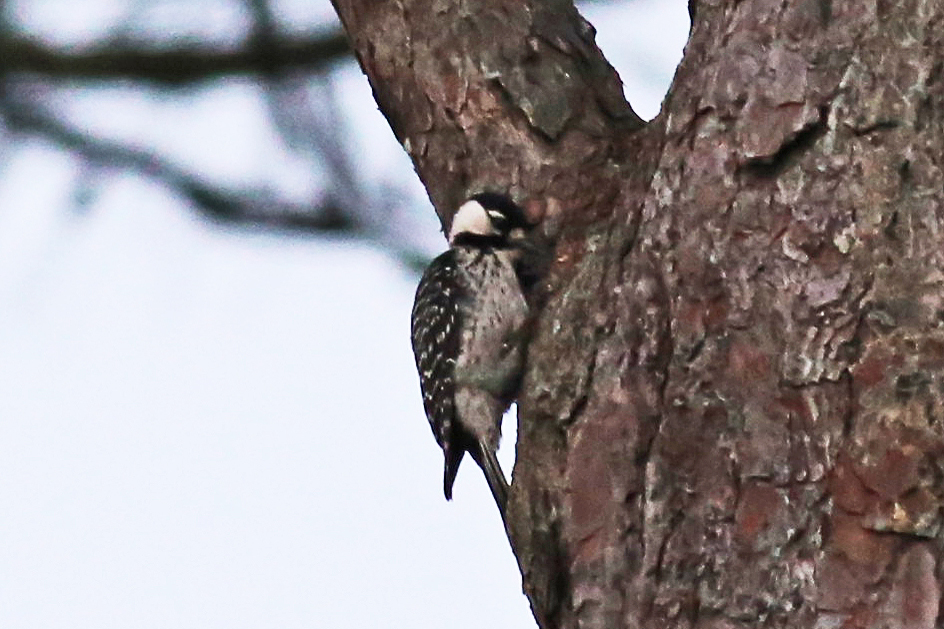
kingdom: Animalia
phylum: Chordata
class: Aves
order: Piciformes
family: Picidae
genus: Leuconotopicus
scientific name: Leuconotopicus borealis
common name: Red-cockaded woodpecker
